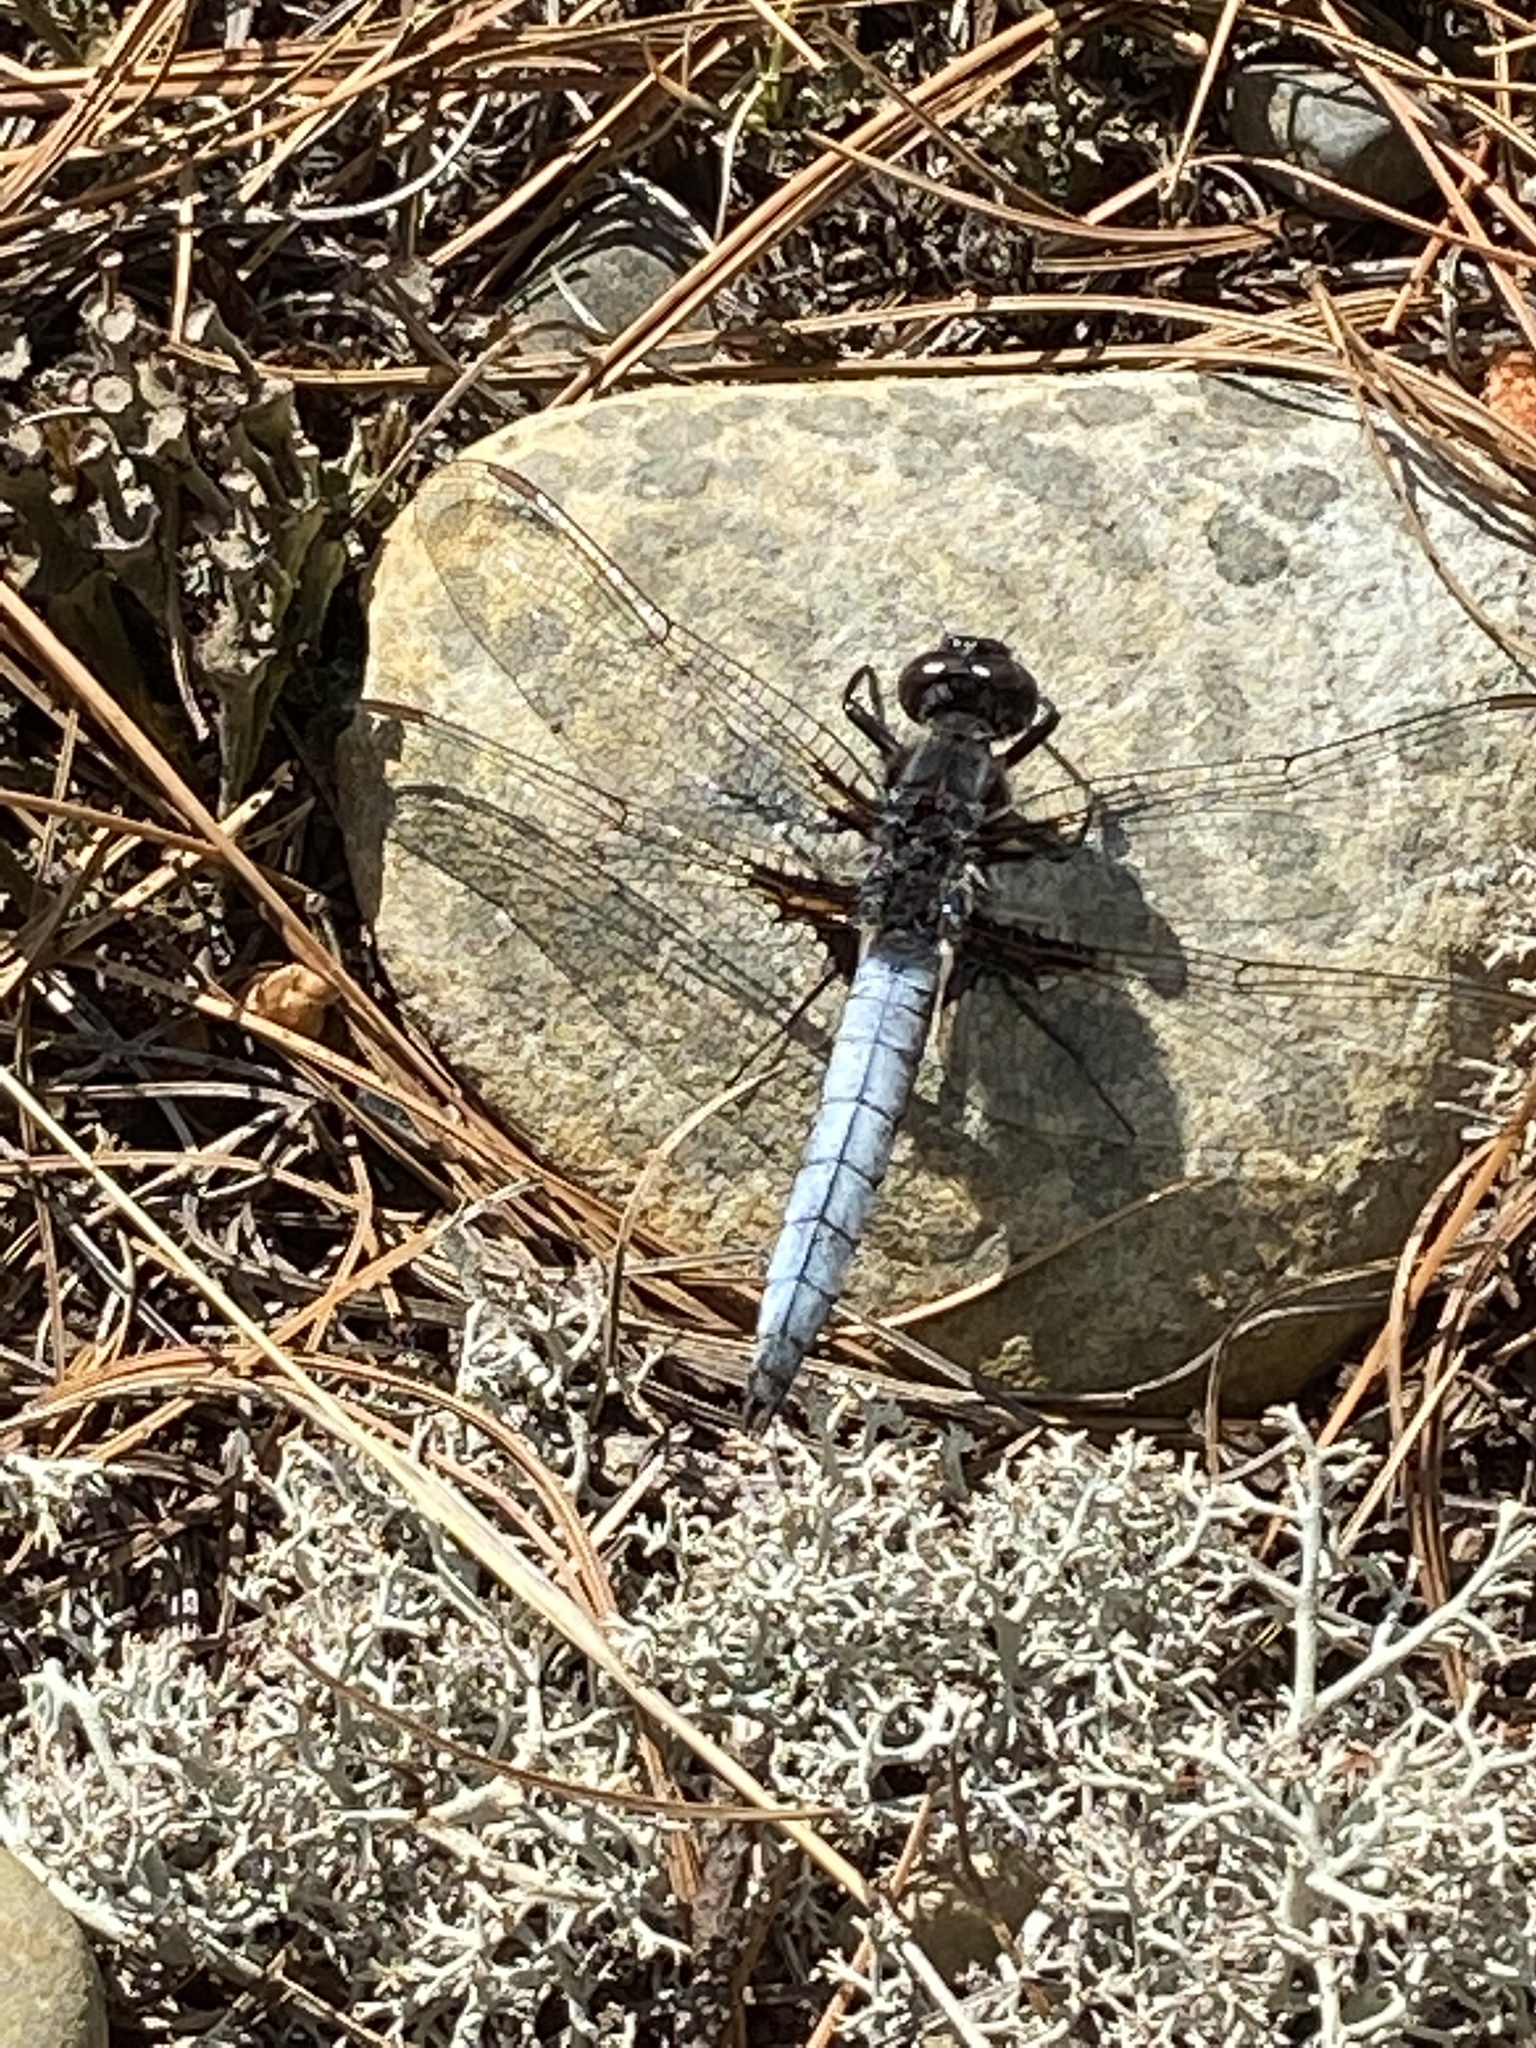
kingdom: Animalia
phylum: Arthropoda
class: Insecta
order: Odonata
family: Libellulidae
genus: Ladona
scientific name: Ladona exusta
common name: Libellule embrasée
